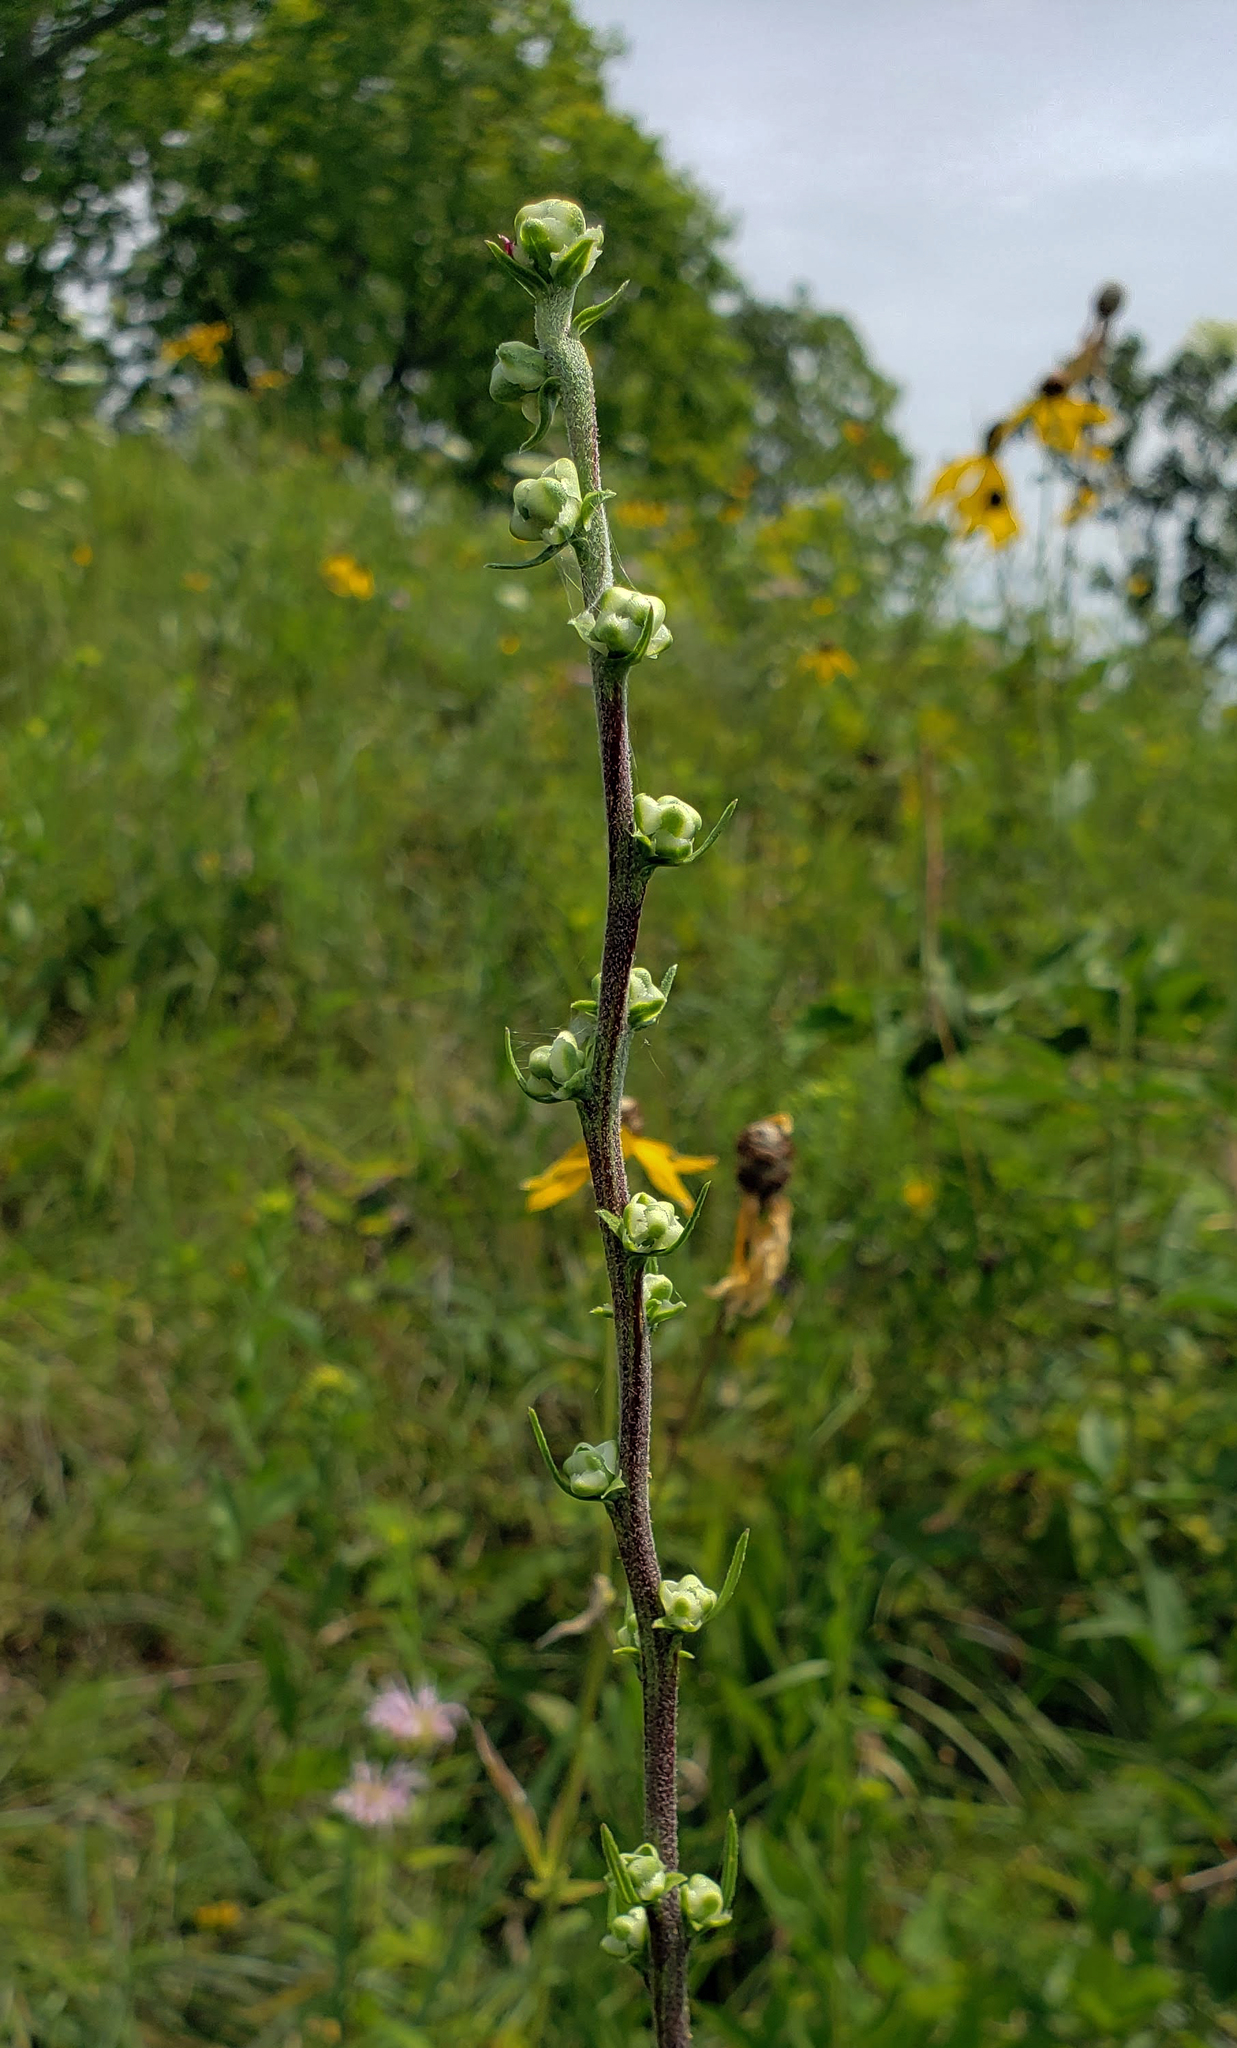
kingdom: Plantae
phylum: Tracheophyta
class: Magnoliopsida
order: Asterales
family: Asteraceae
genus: Liatris
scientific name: Liatris aspera
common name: Lacerate blazing-star
